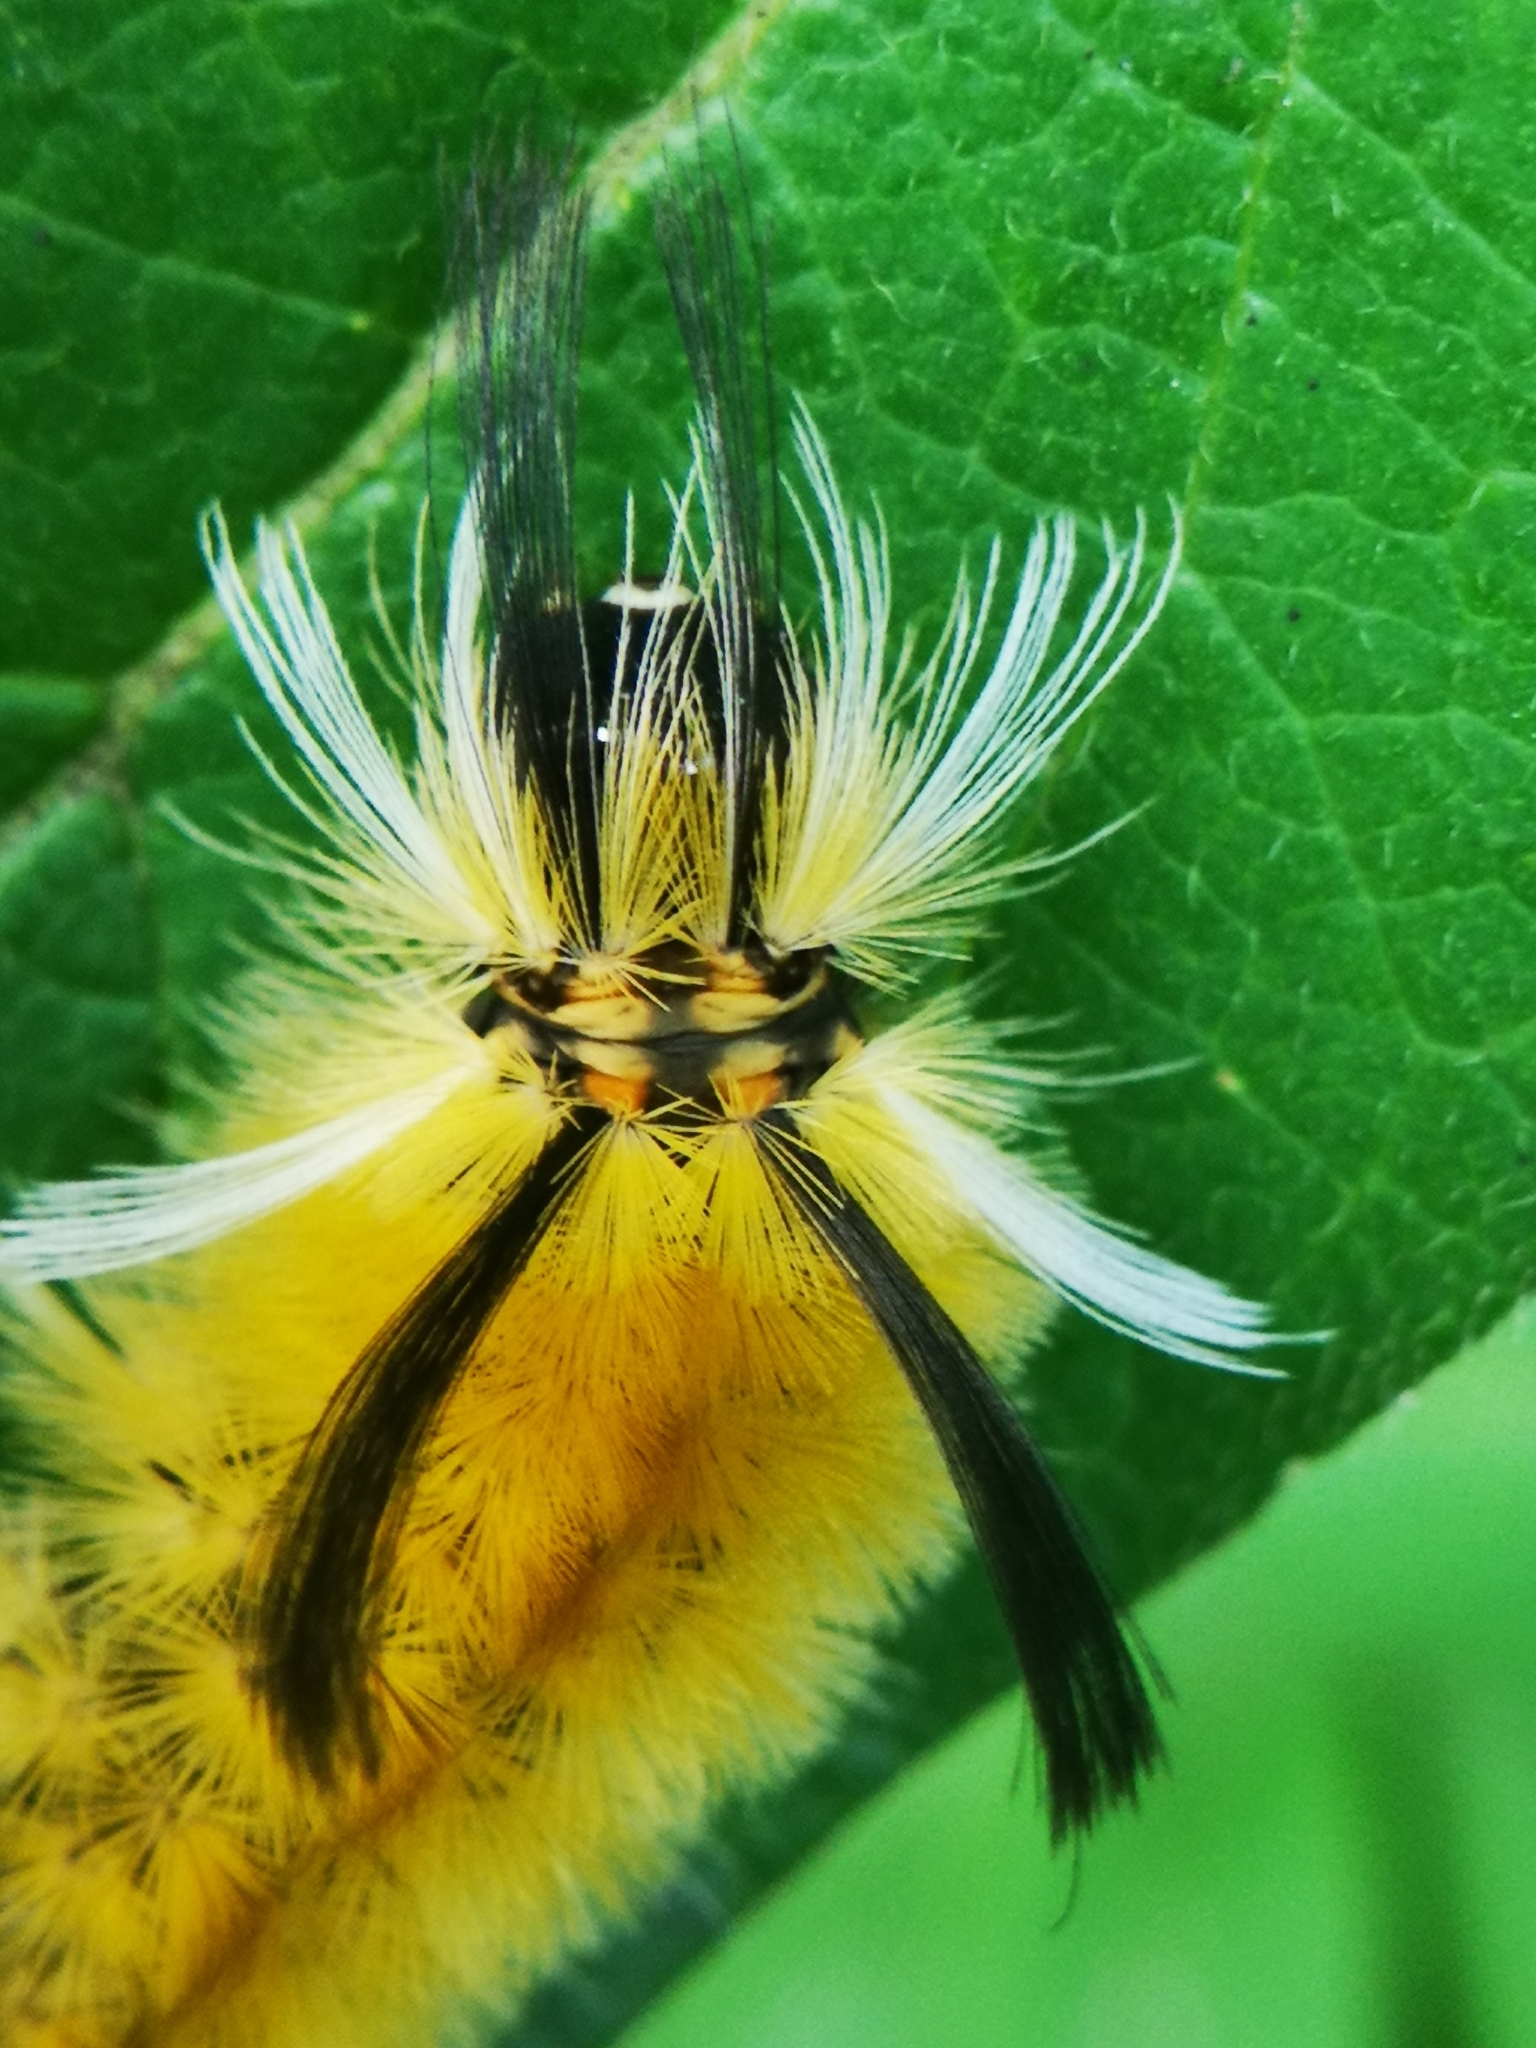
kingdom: Animalia
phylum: Arthropoda
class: Insecta
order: Lepidoptera
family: Erebidae
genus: Halysidota
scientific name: Halysidota tessellaris
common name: Banded tussock moth
